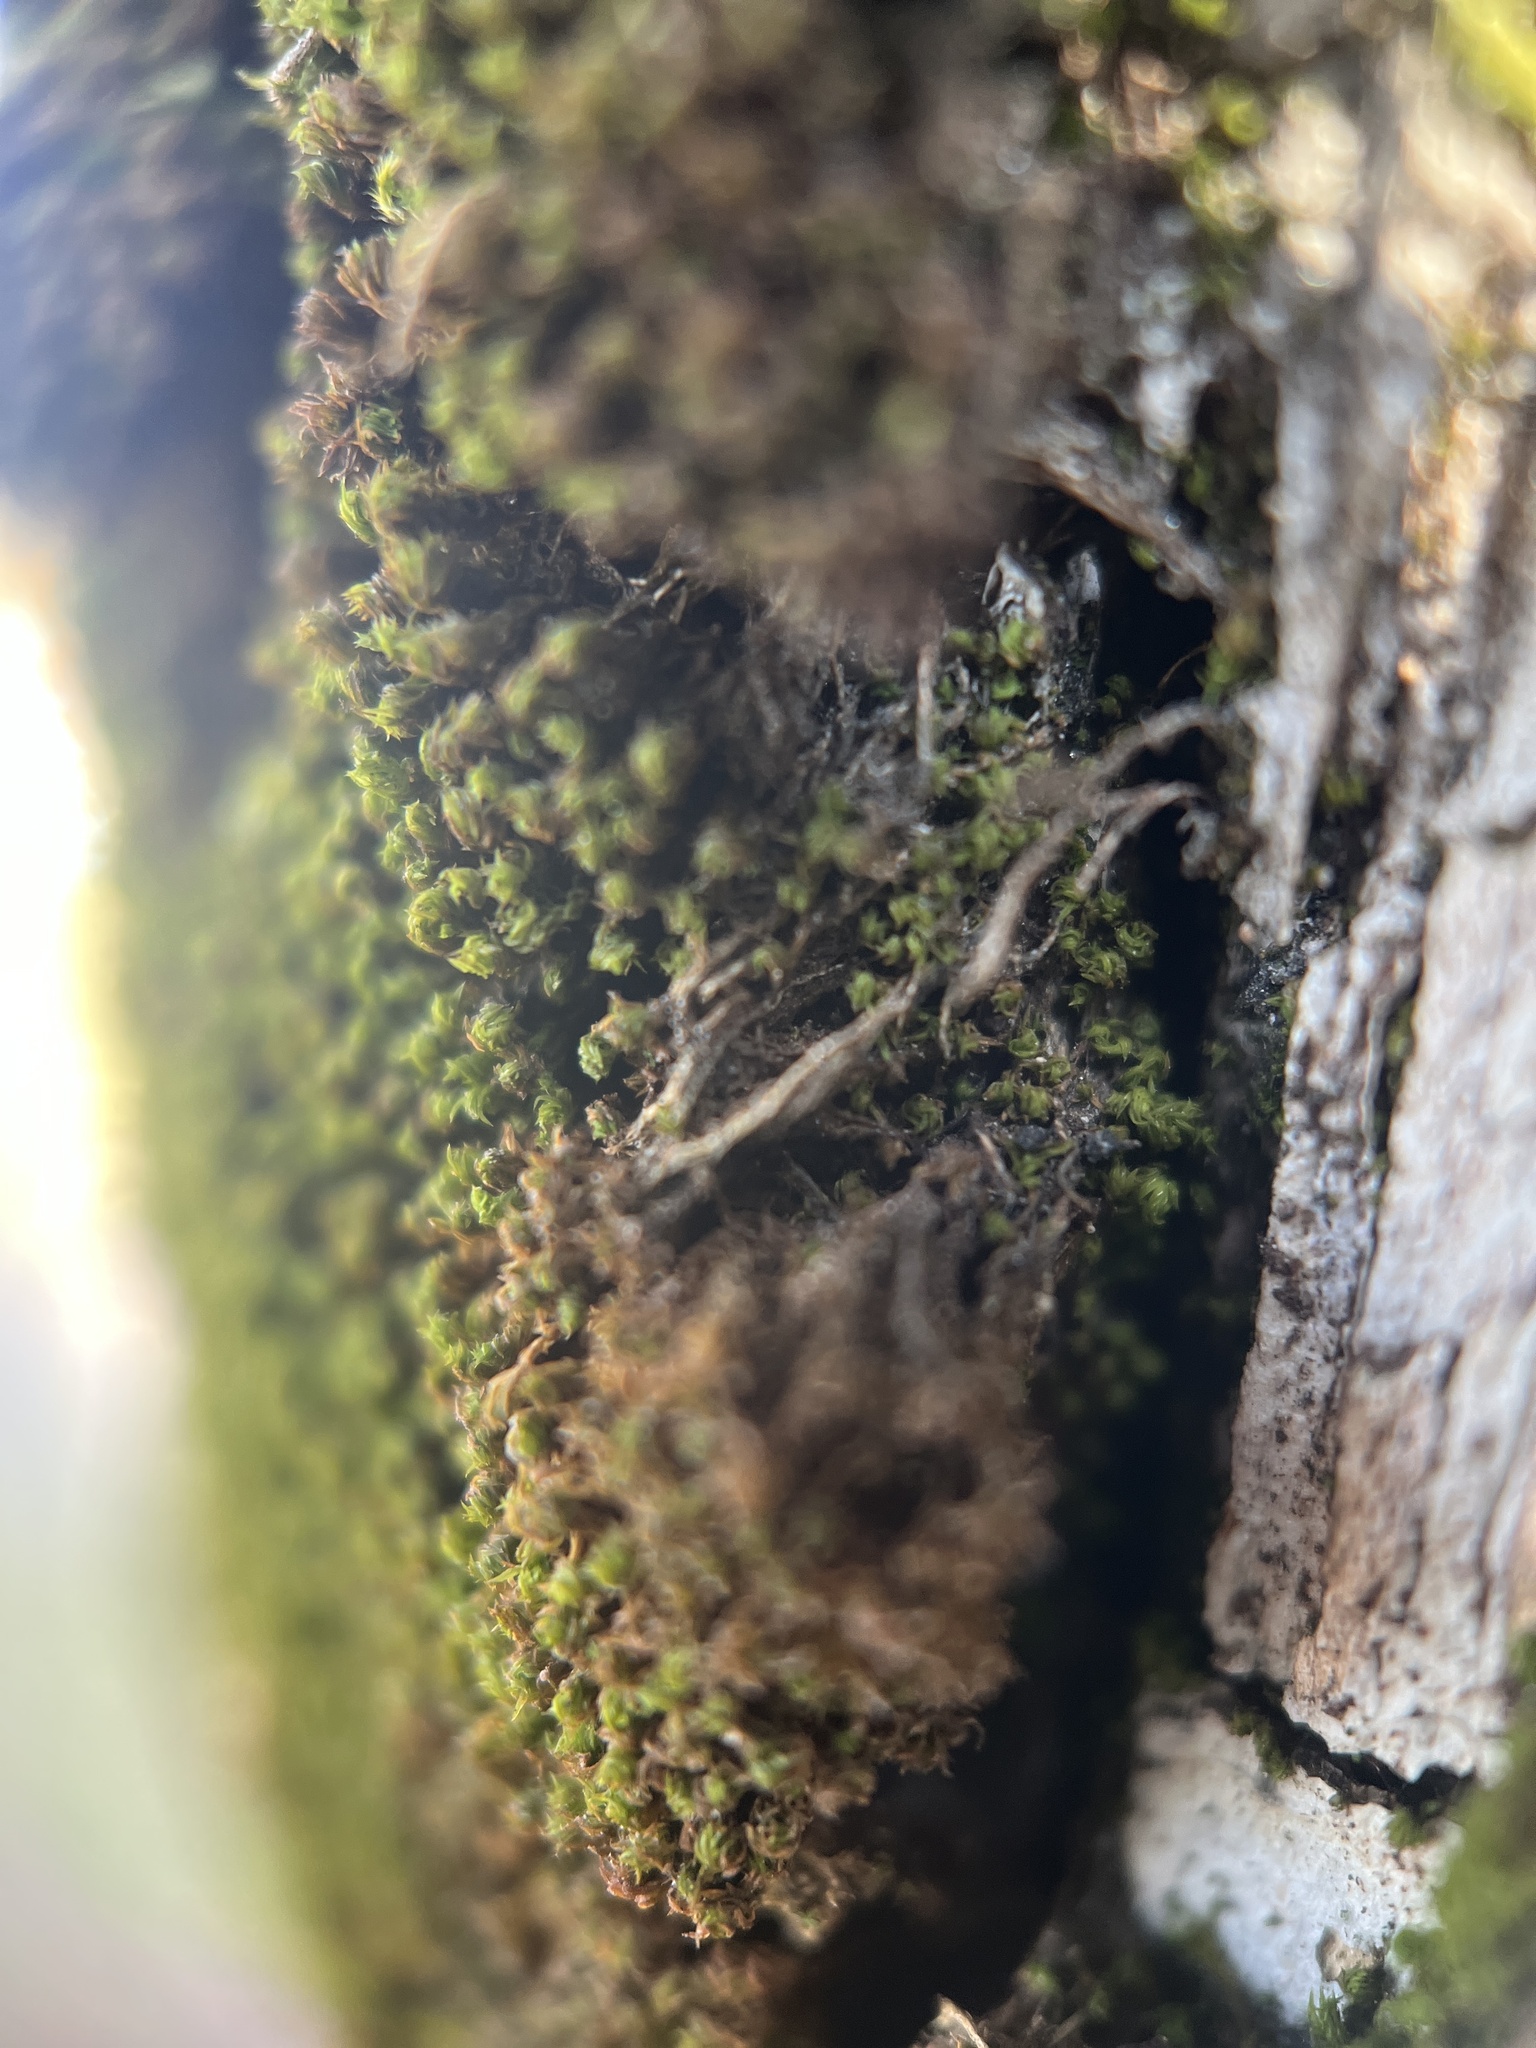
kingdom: Plantae
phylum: Bryophyta
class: Bryopsida
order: Orthotrichales
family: Orthotrichaceae
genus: Zygodon
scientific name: Zygodon rupestris
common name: Park yoke moss
